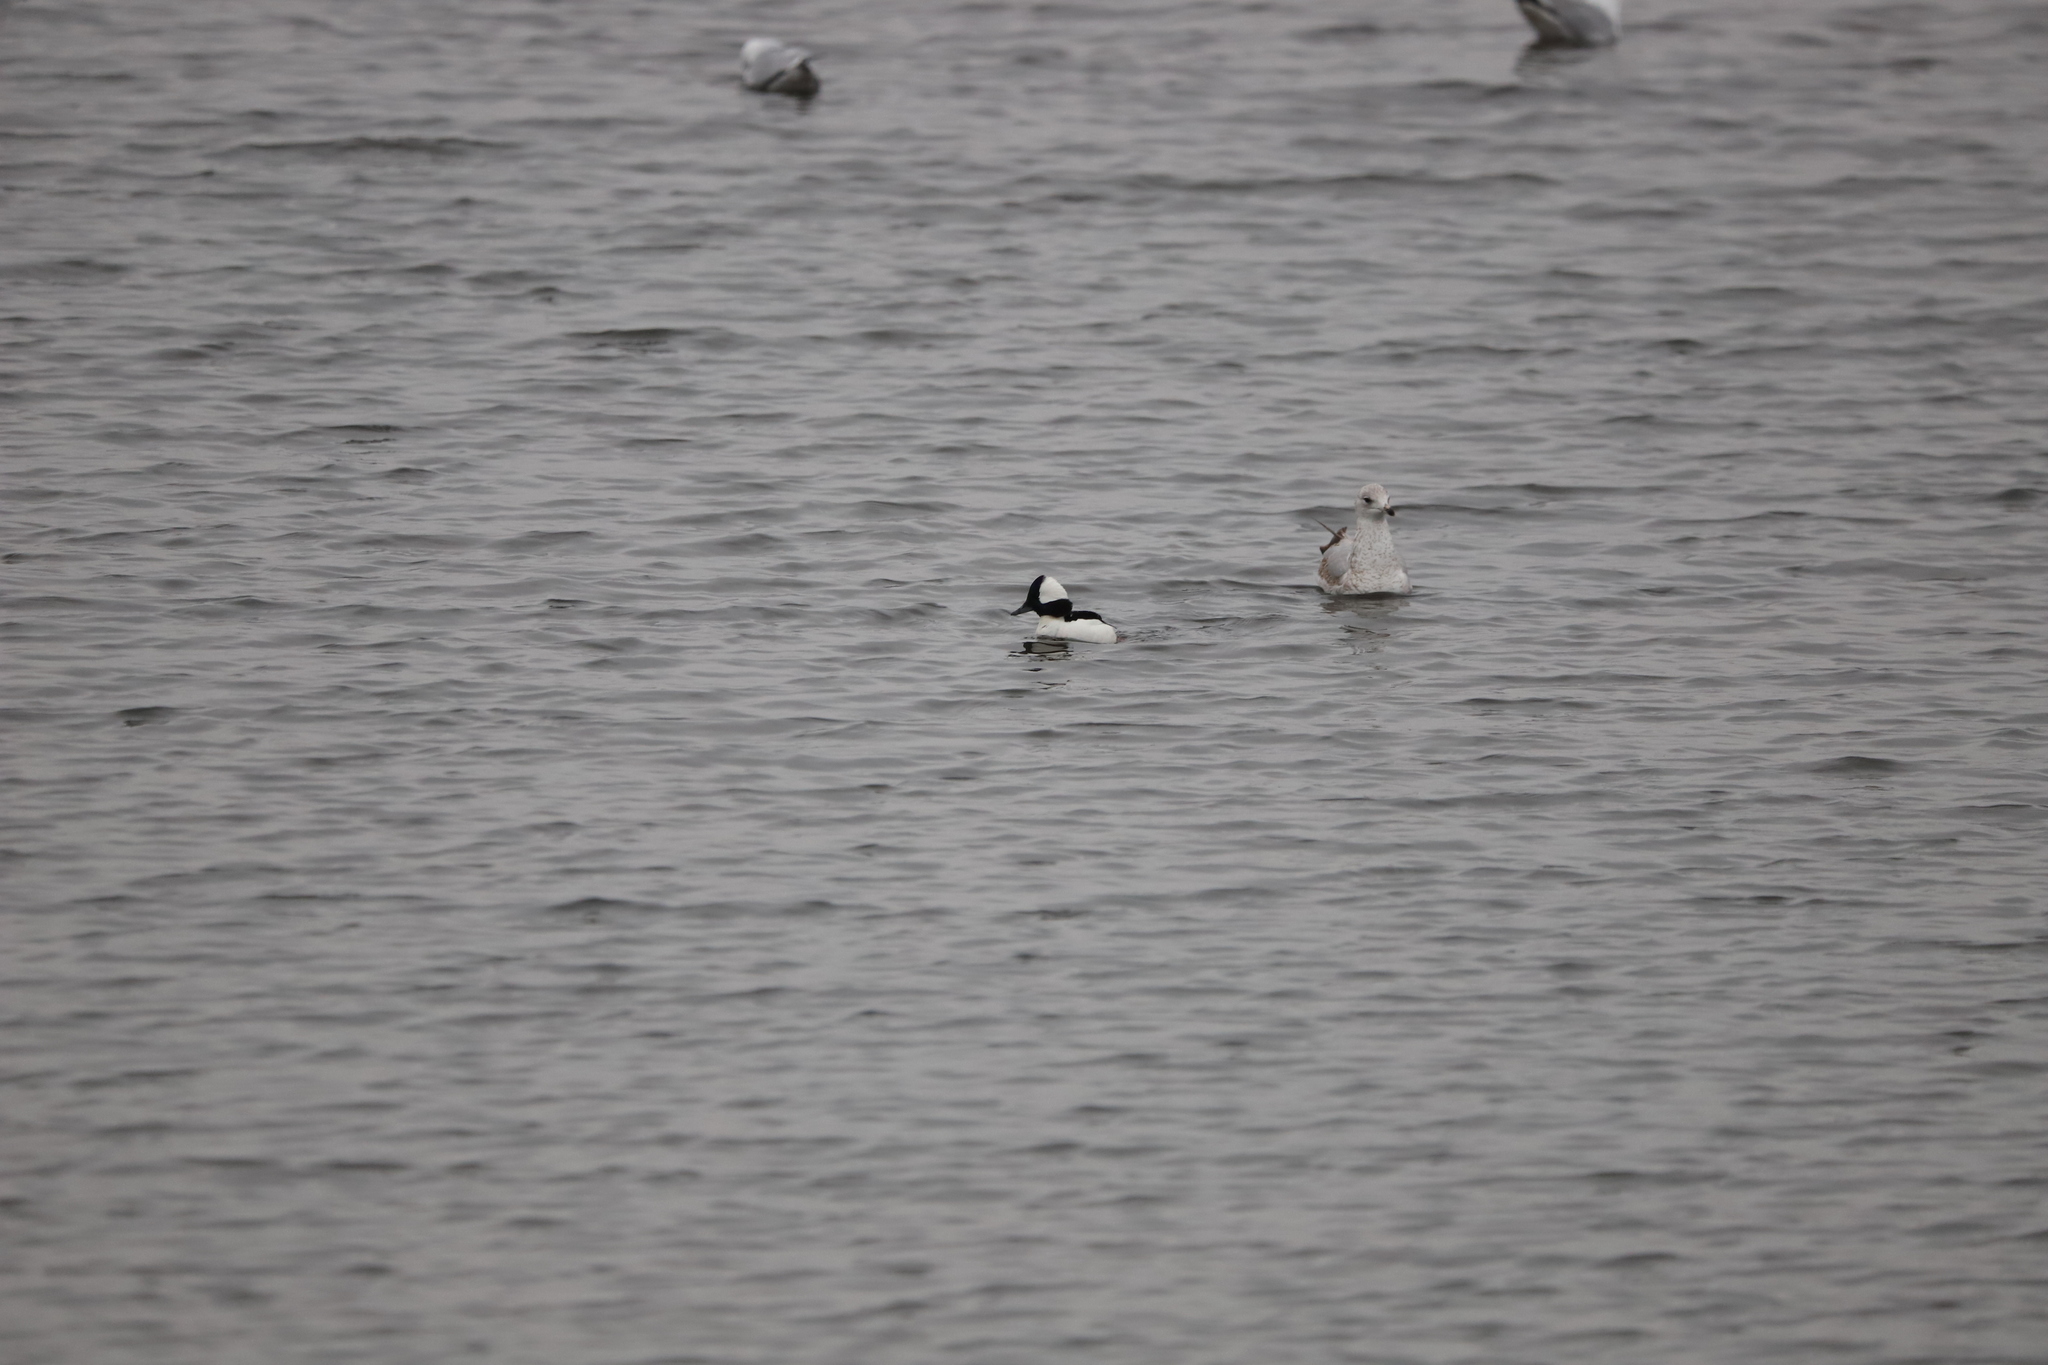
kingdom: Animalia
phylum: Chordata
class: Aves
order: Anseriformes
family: Anatidae
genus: Bucephala
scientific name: Bucephala albeola
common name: Bufflehead
